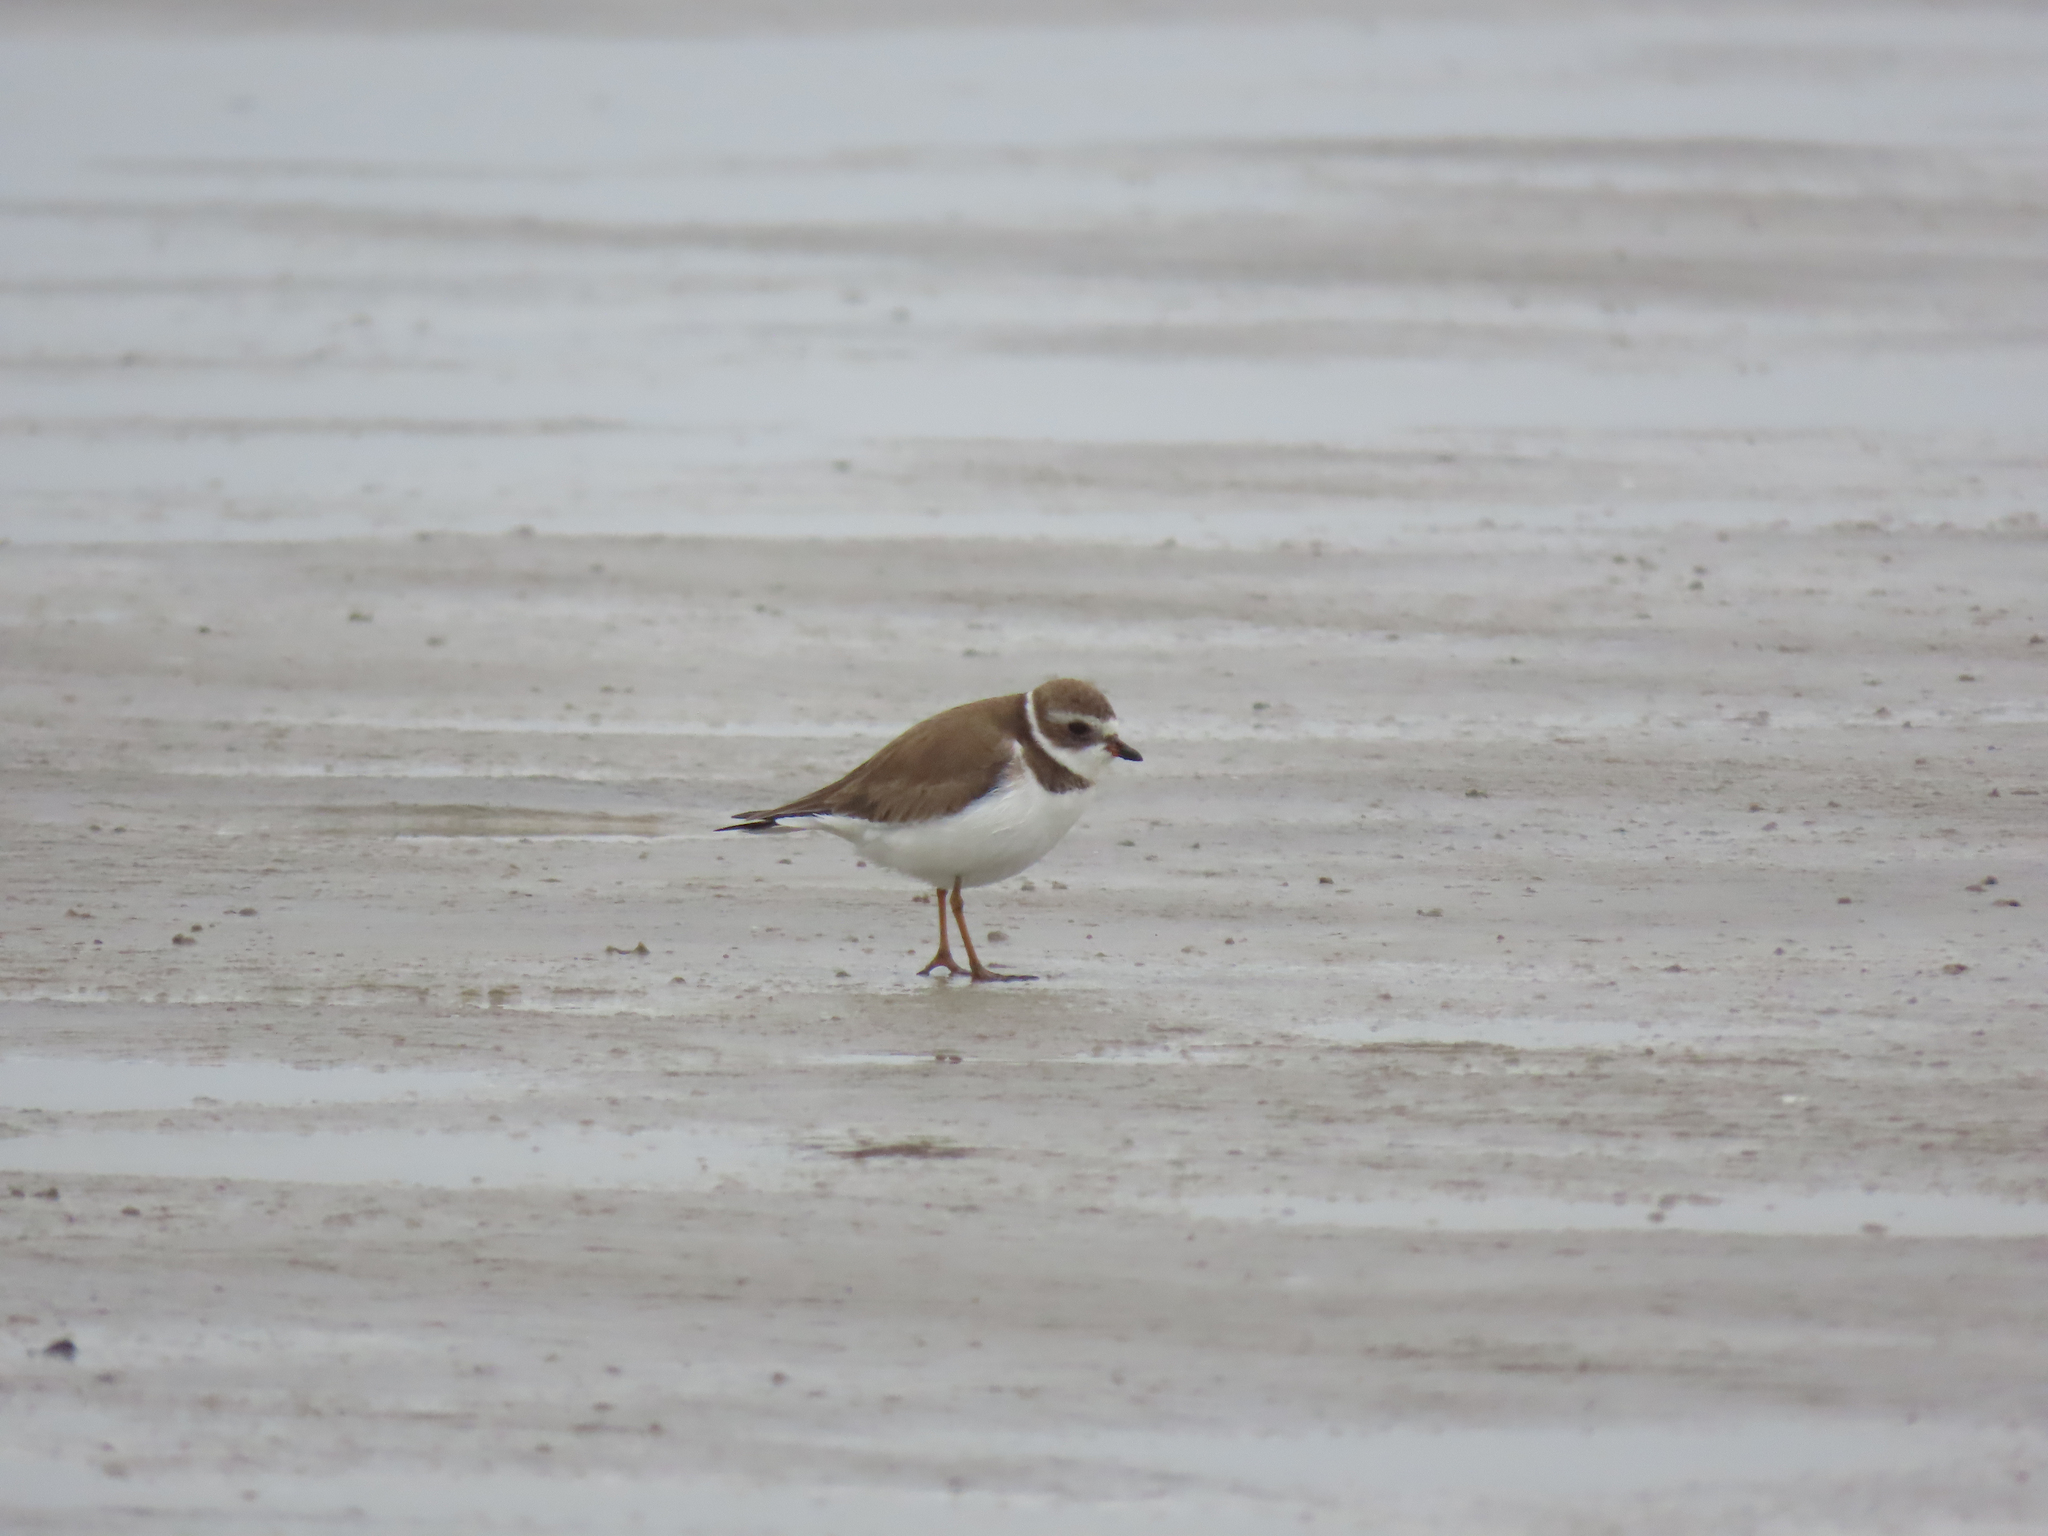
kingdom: Animalia
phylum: Chordata
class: Aves
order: Charadriiformes
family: Charadriidae
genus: Charadrius
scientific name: Charadrius semipalmatus
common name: Semipalmated plover
